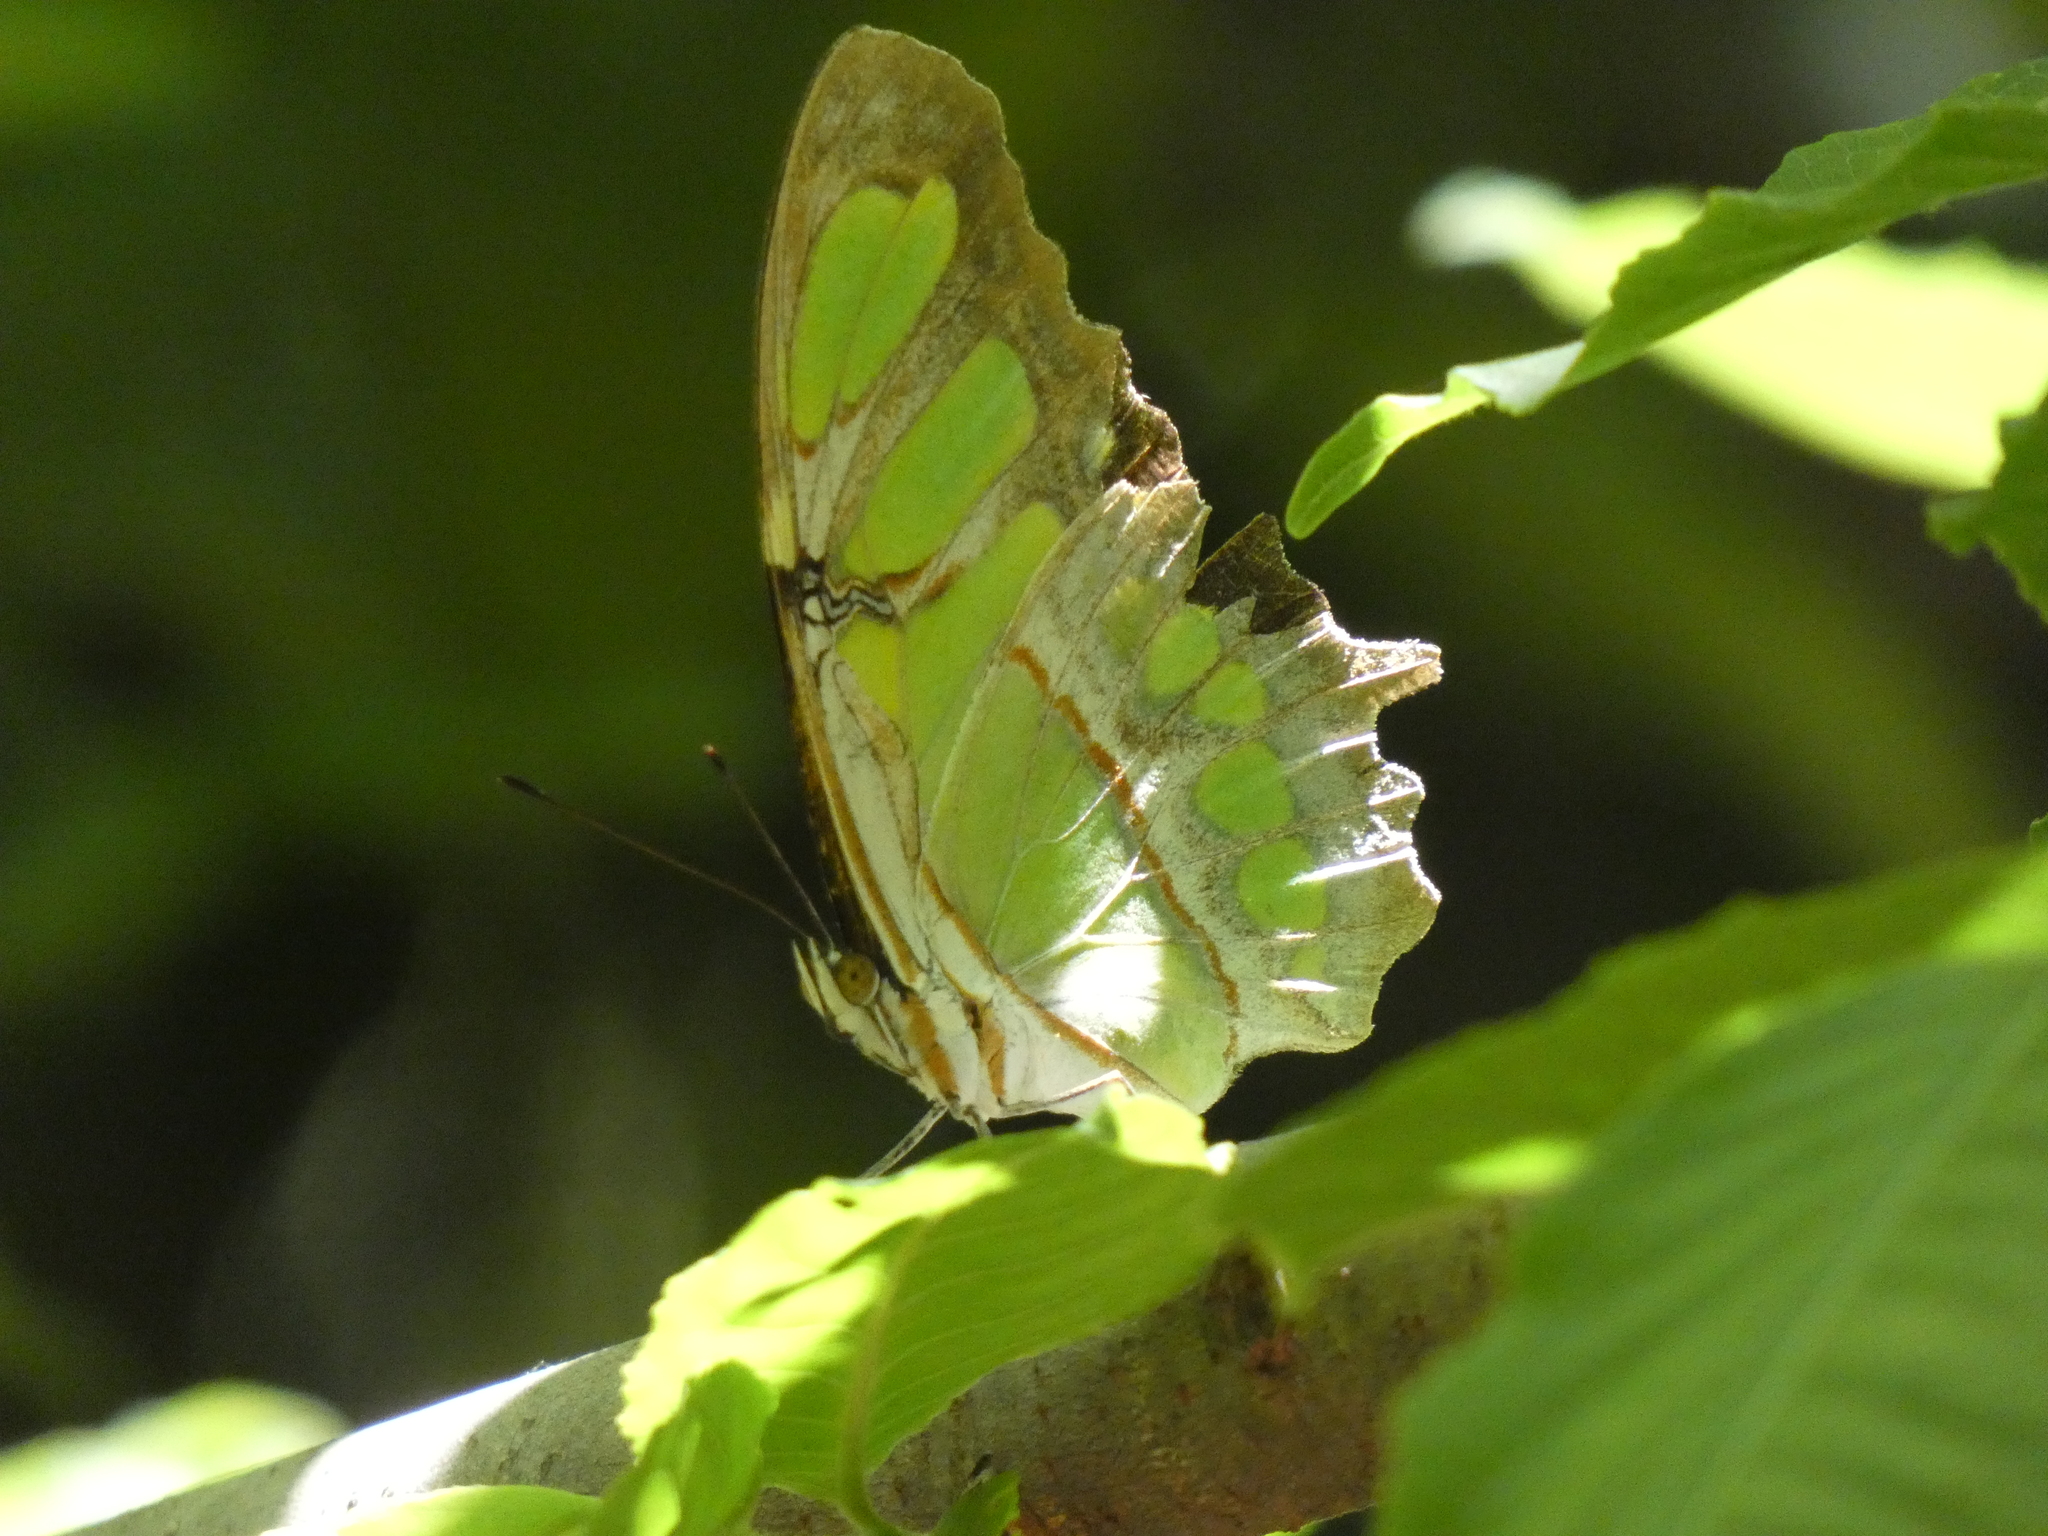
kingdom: Animalia
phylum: Arthropoda
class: Insecta
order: Lepidoptera
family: Nymphalidae
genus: Siproeta
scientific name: Siproeta stelenes
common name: Malachite
